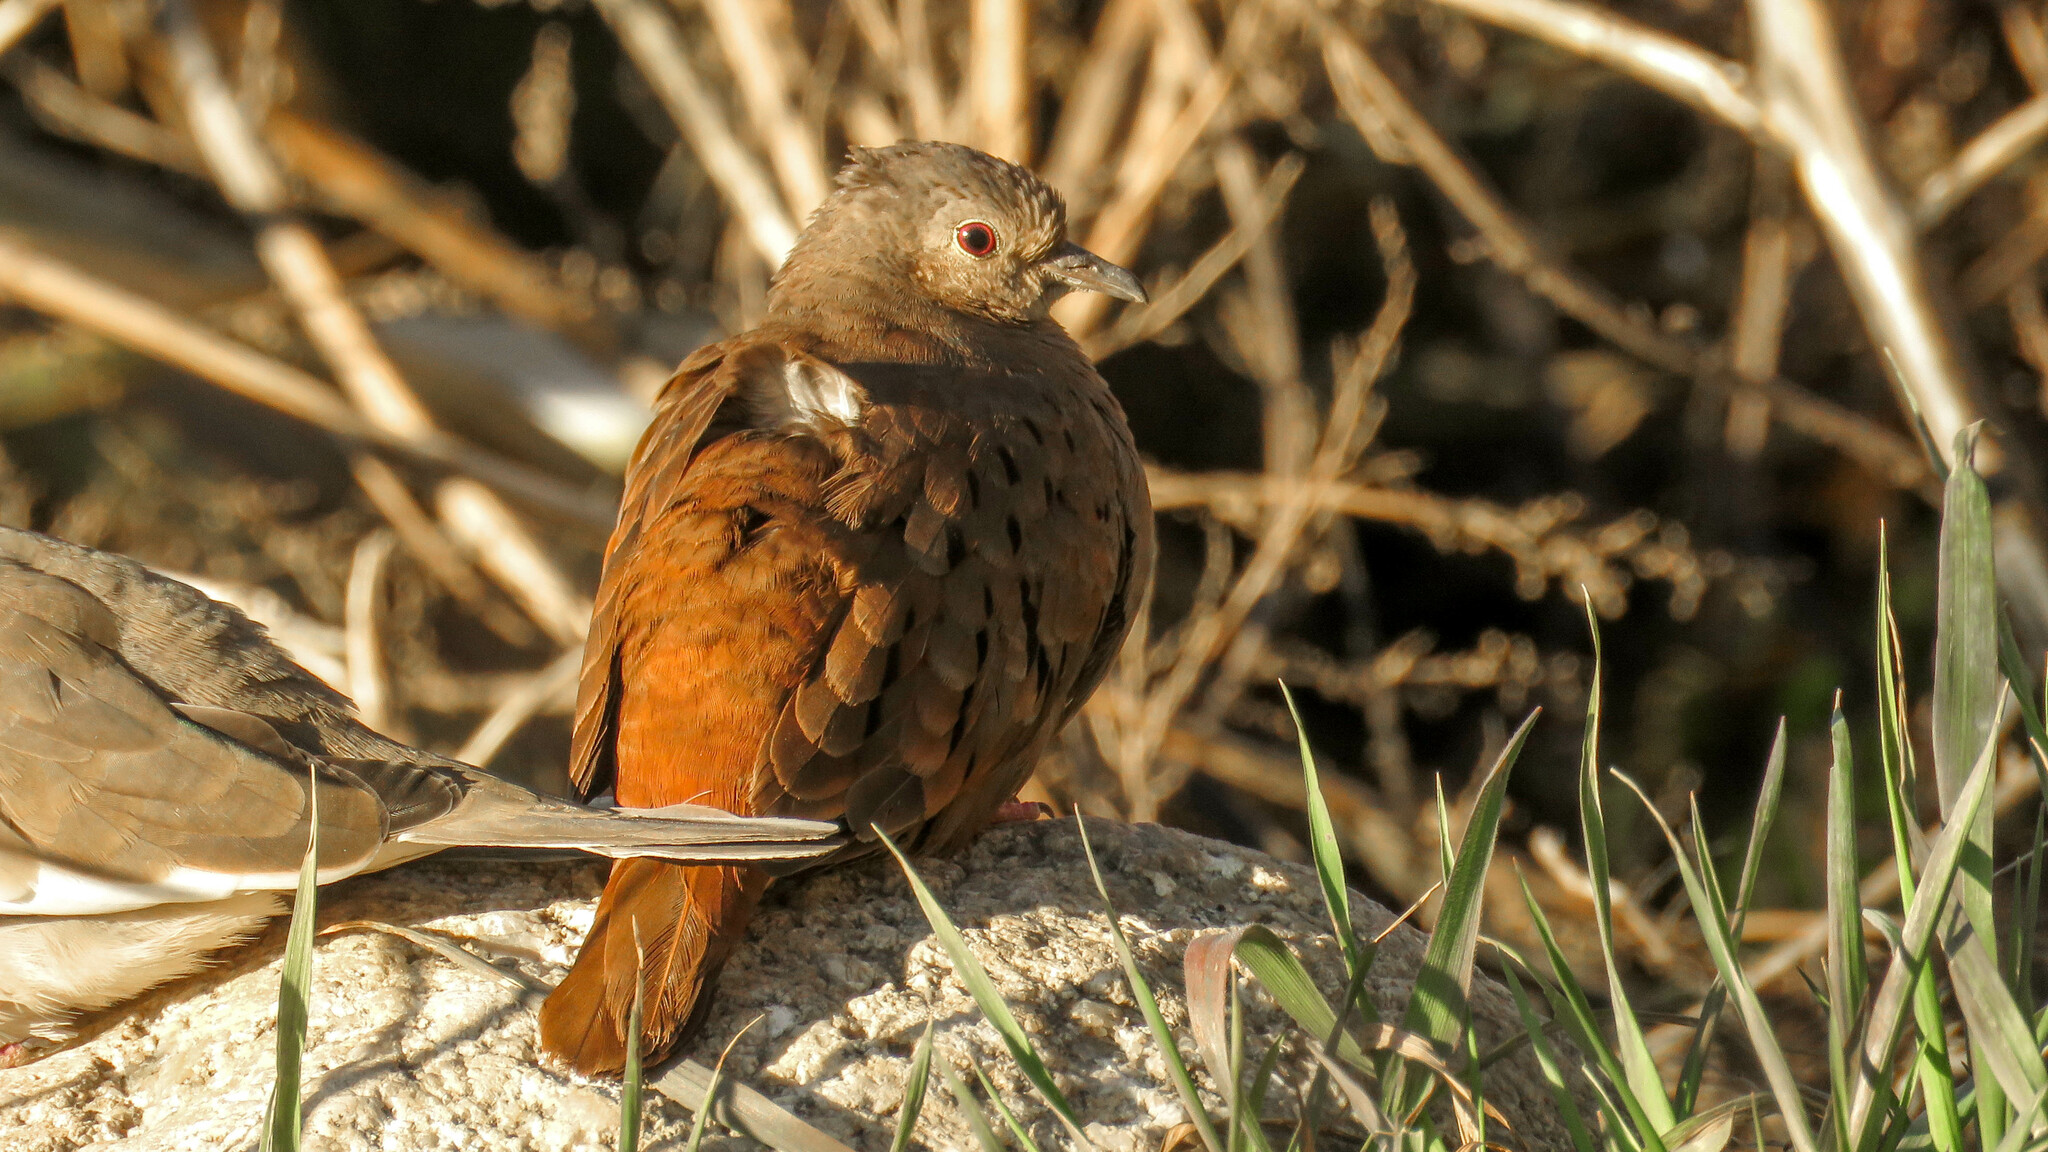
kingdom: Animalia
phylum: Chordata
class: Aves
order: Columbiformes
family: Columbidae
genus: Columbina
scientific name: Columbina talpacoti
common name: Ruddy ground dove
